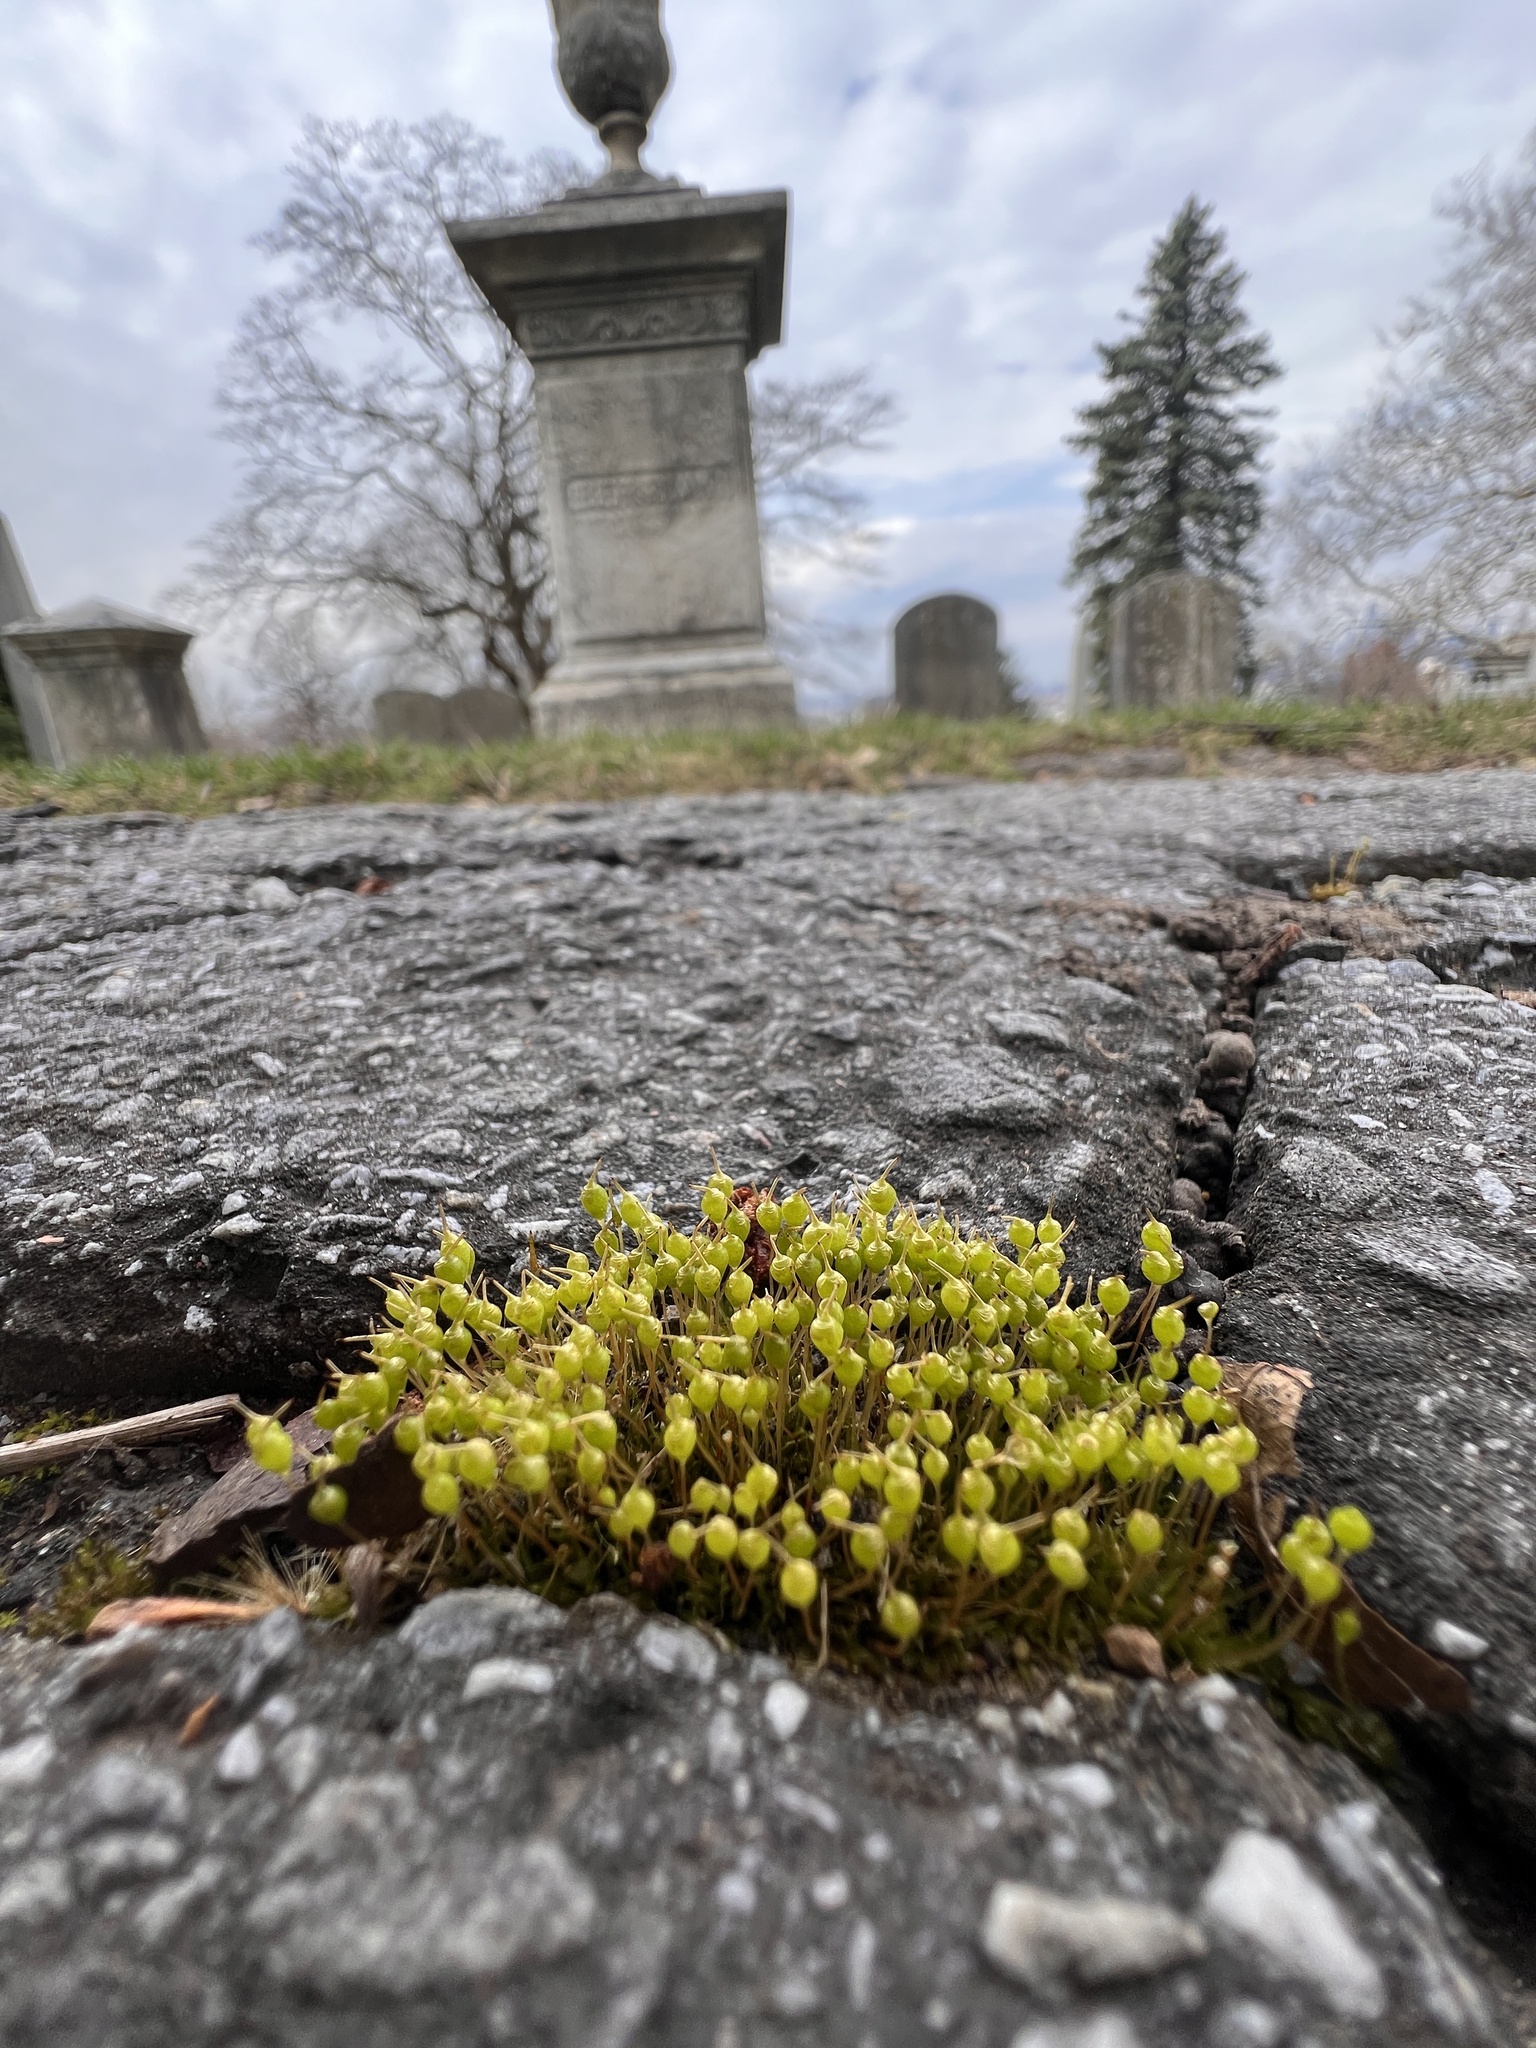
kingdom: Plantae
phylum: Bryophyta
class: Bryopsida
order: Funariales
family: Funariaceae
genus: Physcomitrium
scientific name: Physcomitrium pyriforme
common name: Common bladder-moss
